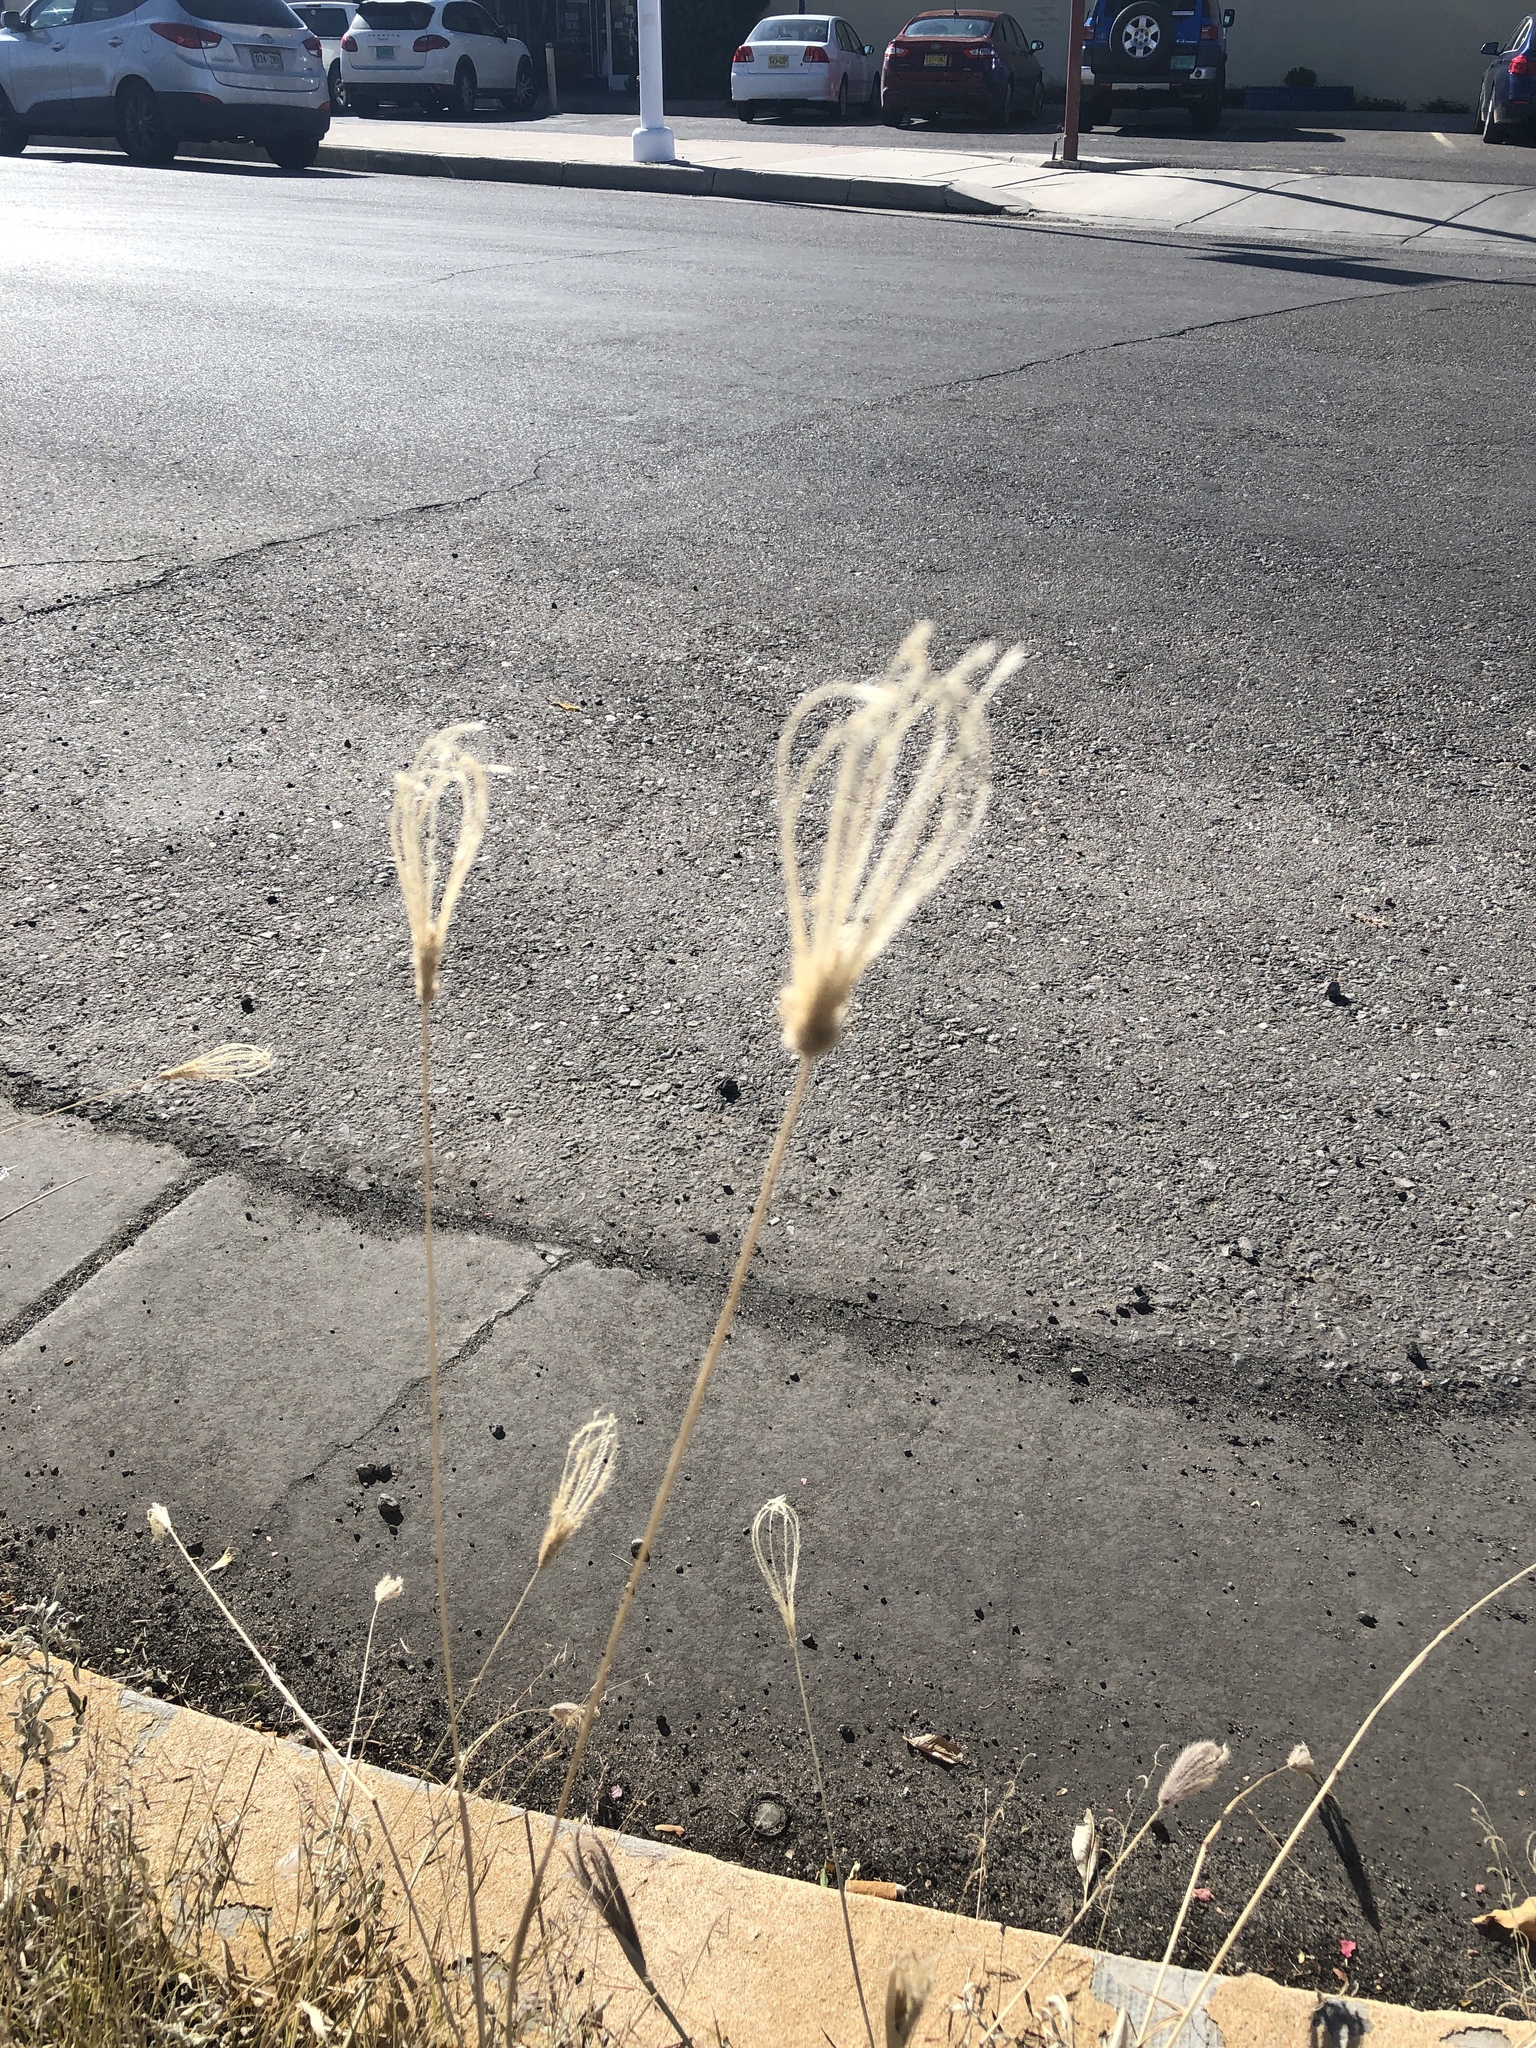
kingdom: Plantae
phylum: Tracheophyta
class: Liliopsida
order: Poales
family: Poaceae
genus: Chloris
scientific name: Chloris virgata
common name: Feathery rhodes-grass
